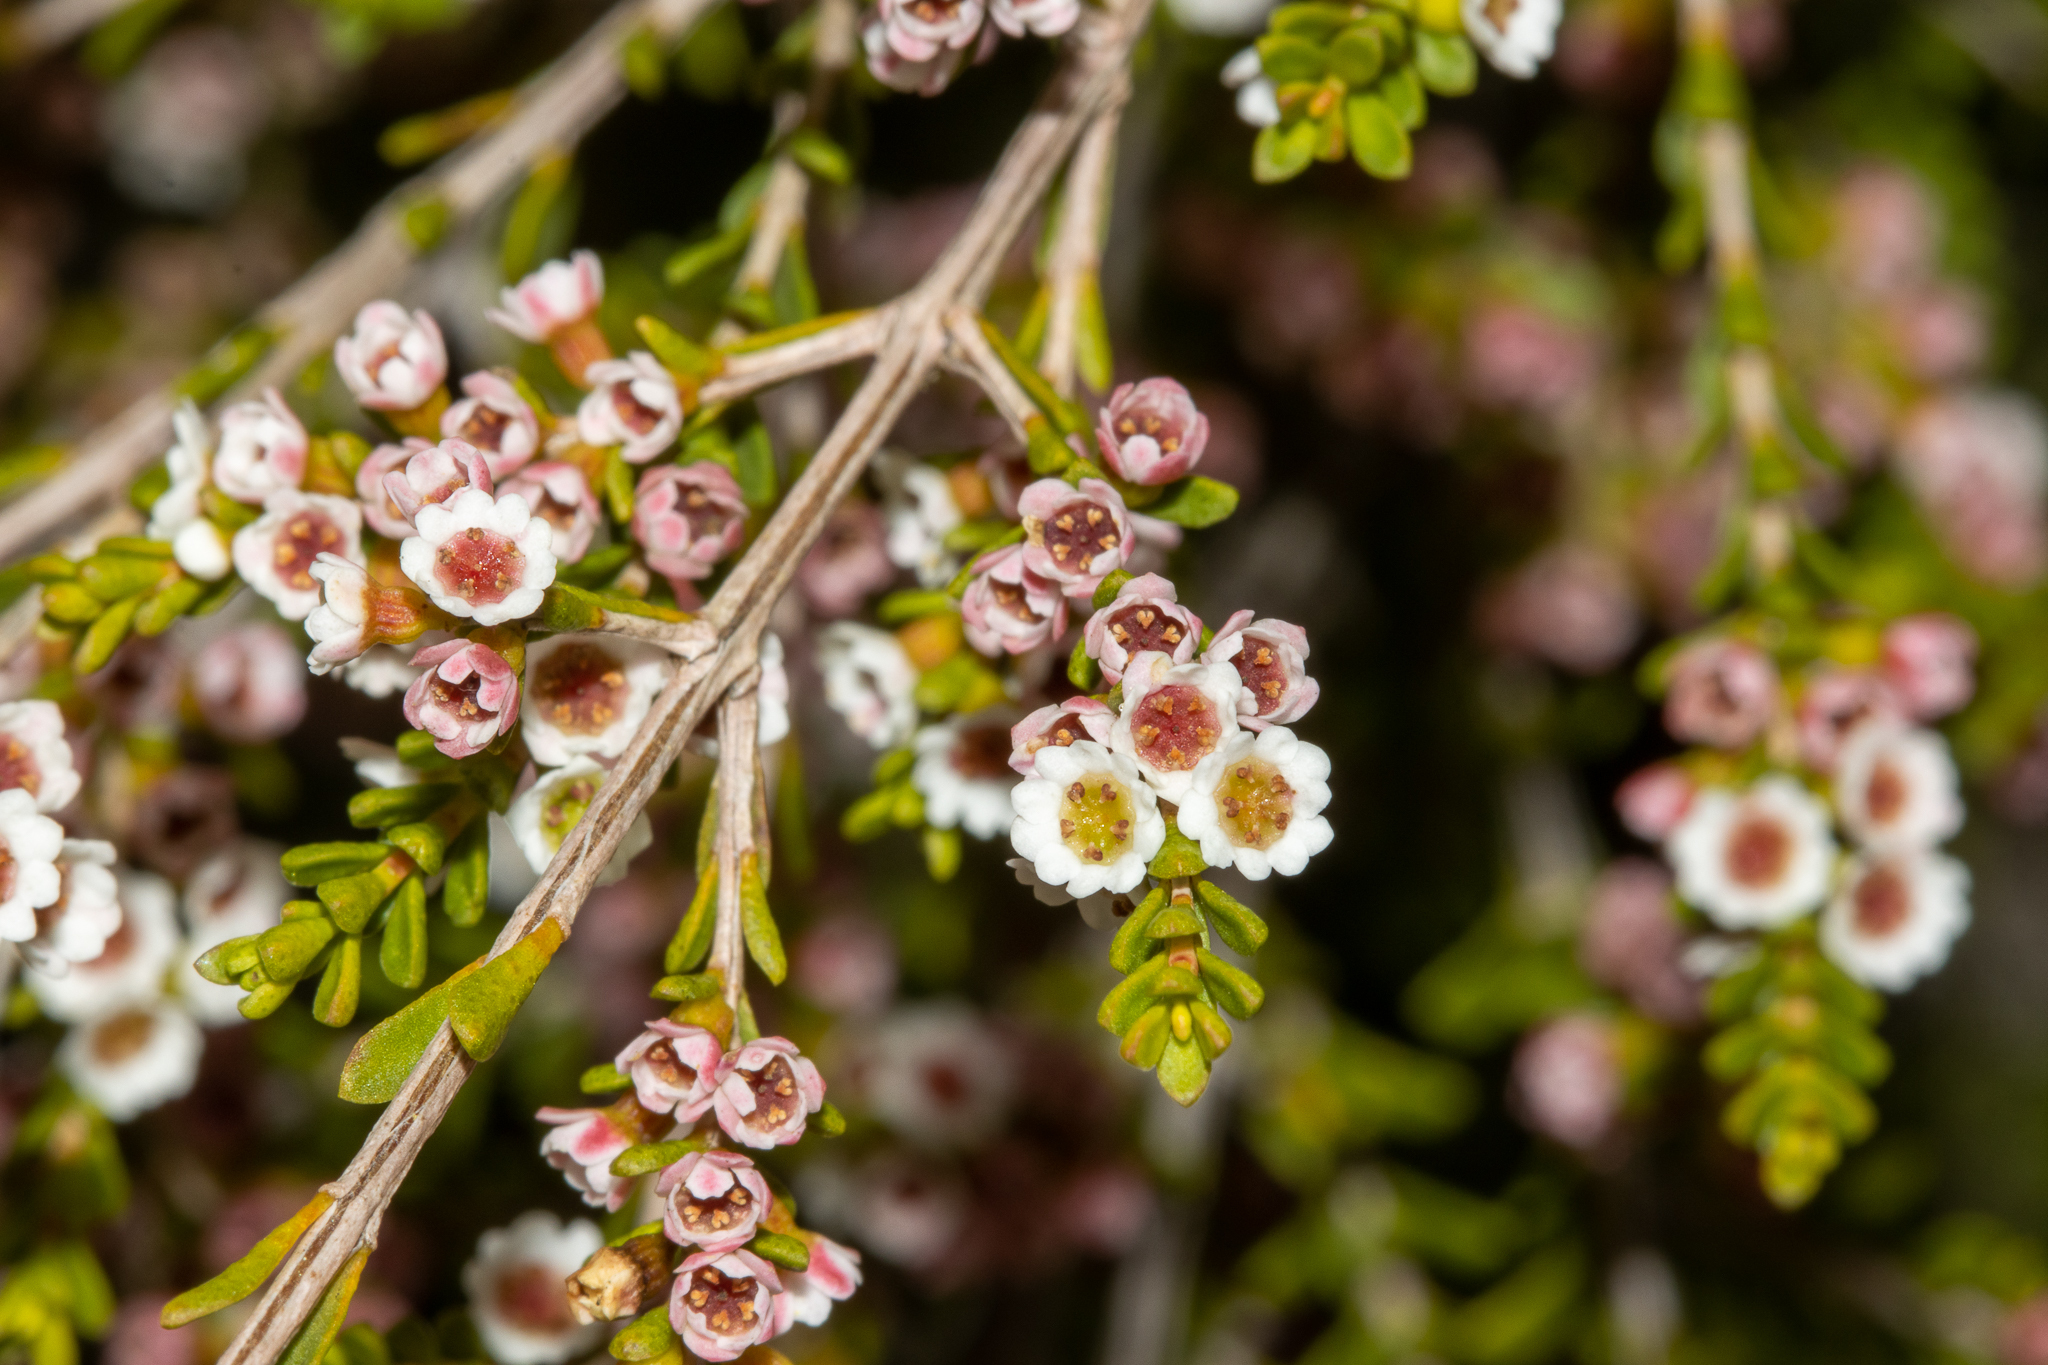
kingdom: Plantae
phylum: Tracheophyta
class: Magnoliopsida
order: Myrtales
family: Myrtaceae
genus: Thryptomene
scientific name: Thryptomene micrantha
